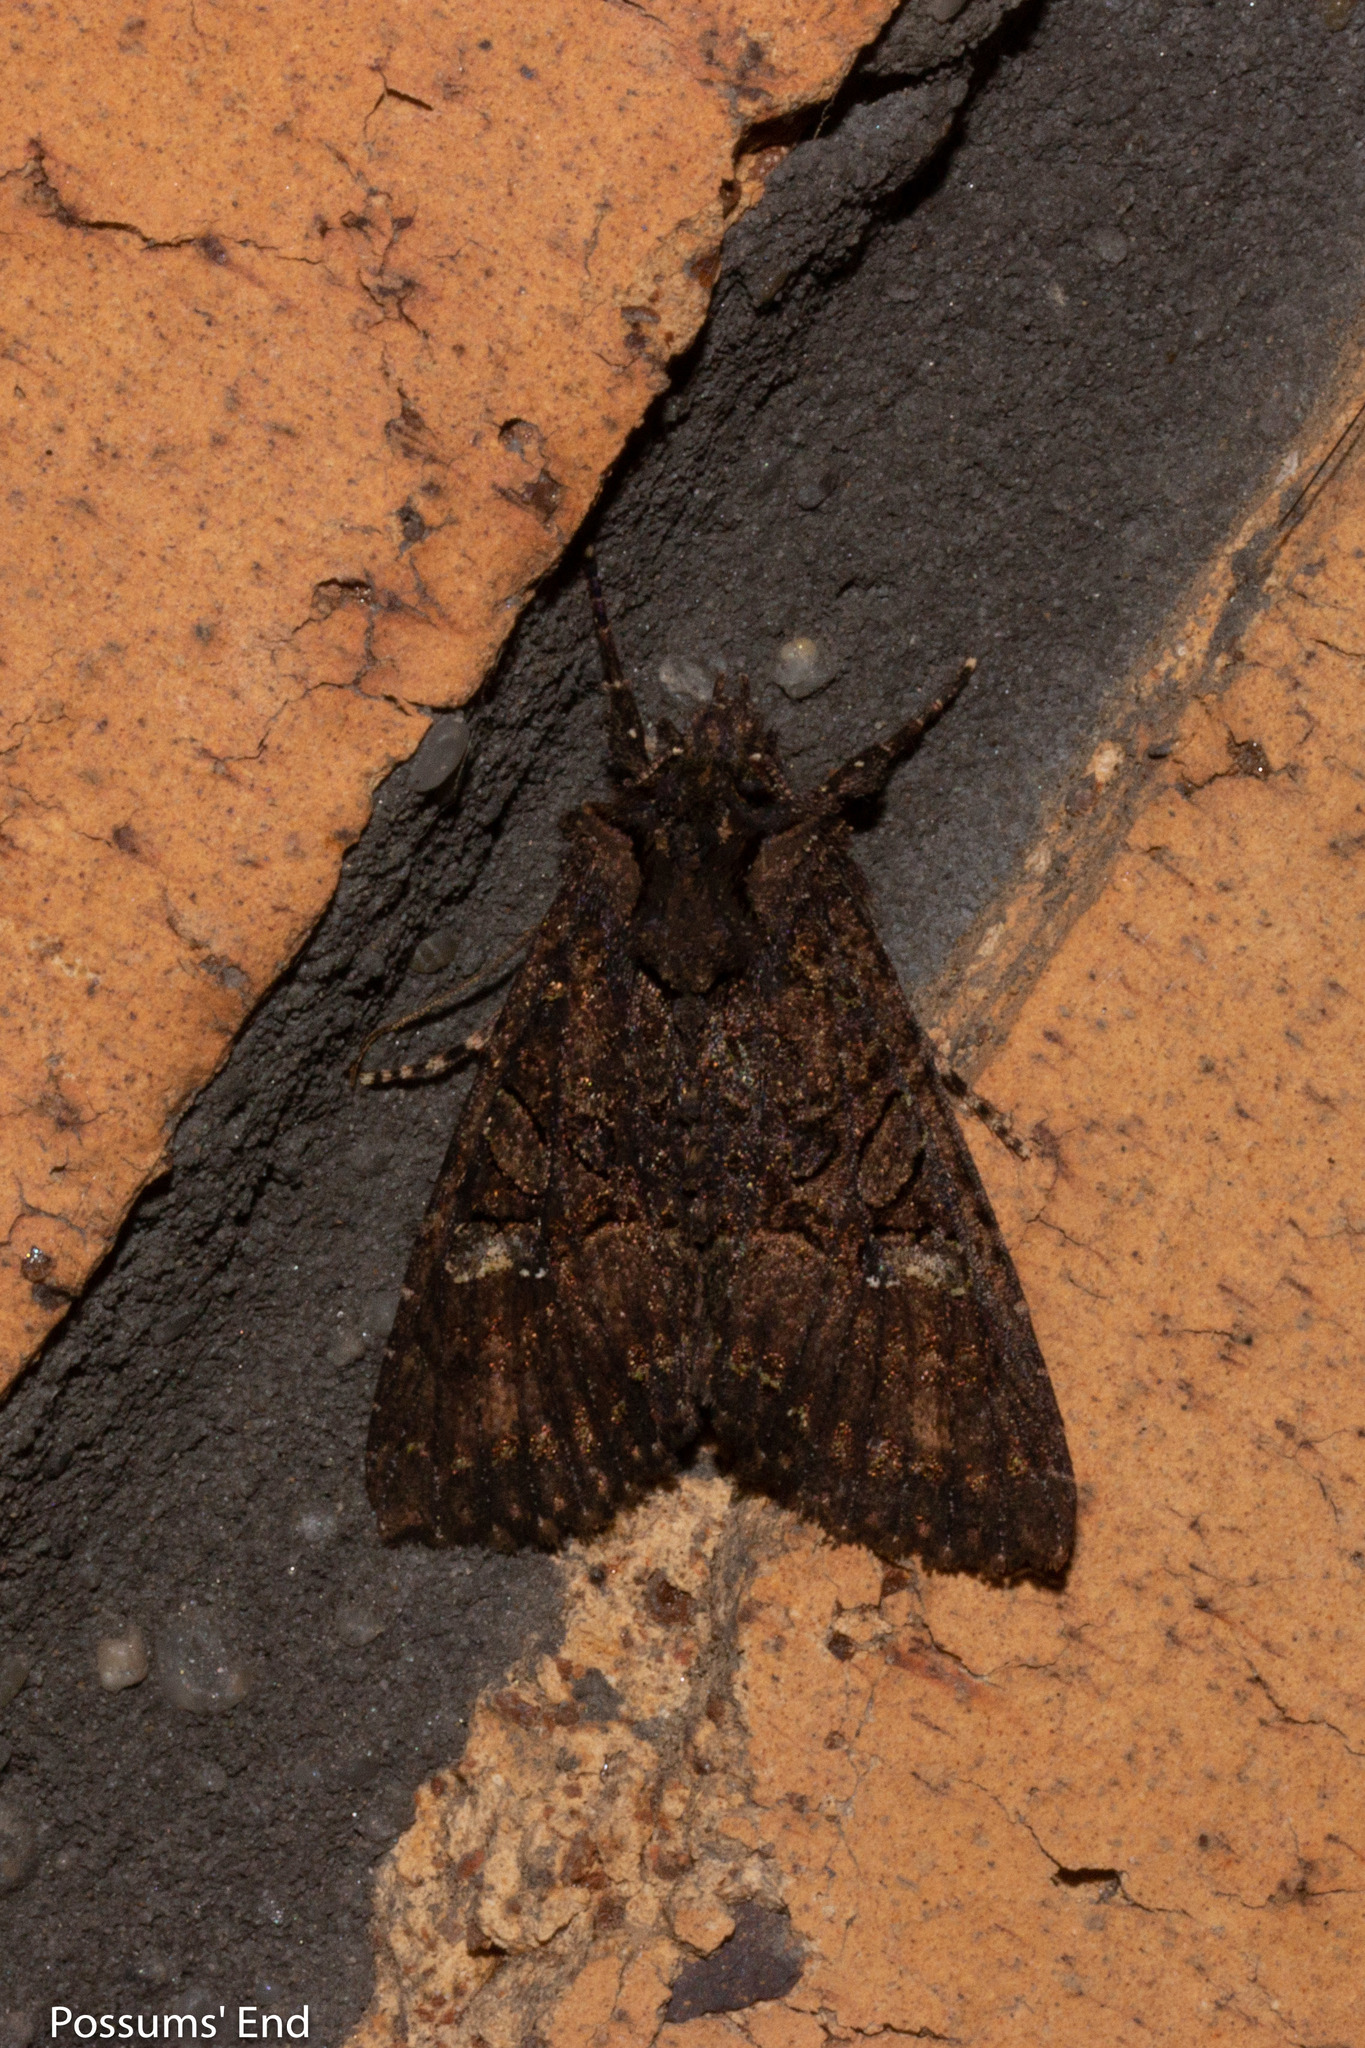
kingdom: Animalia
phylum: Arthropoda
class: Insecta
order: Lepidoptera
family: Noctuidae
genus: Meterana
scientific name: Meterana ochthistis
